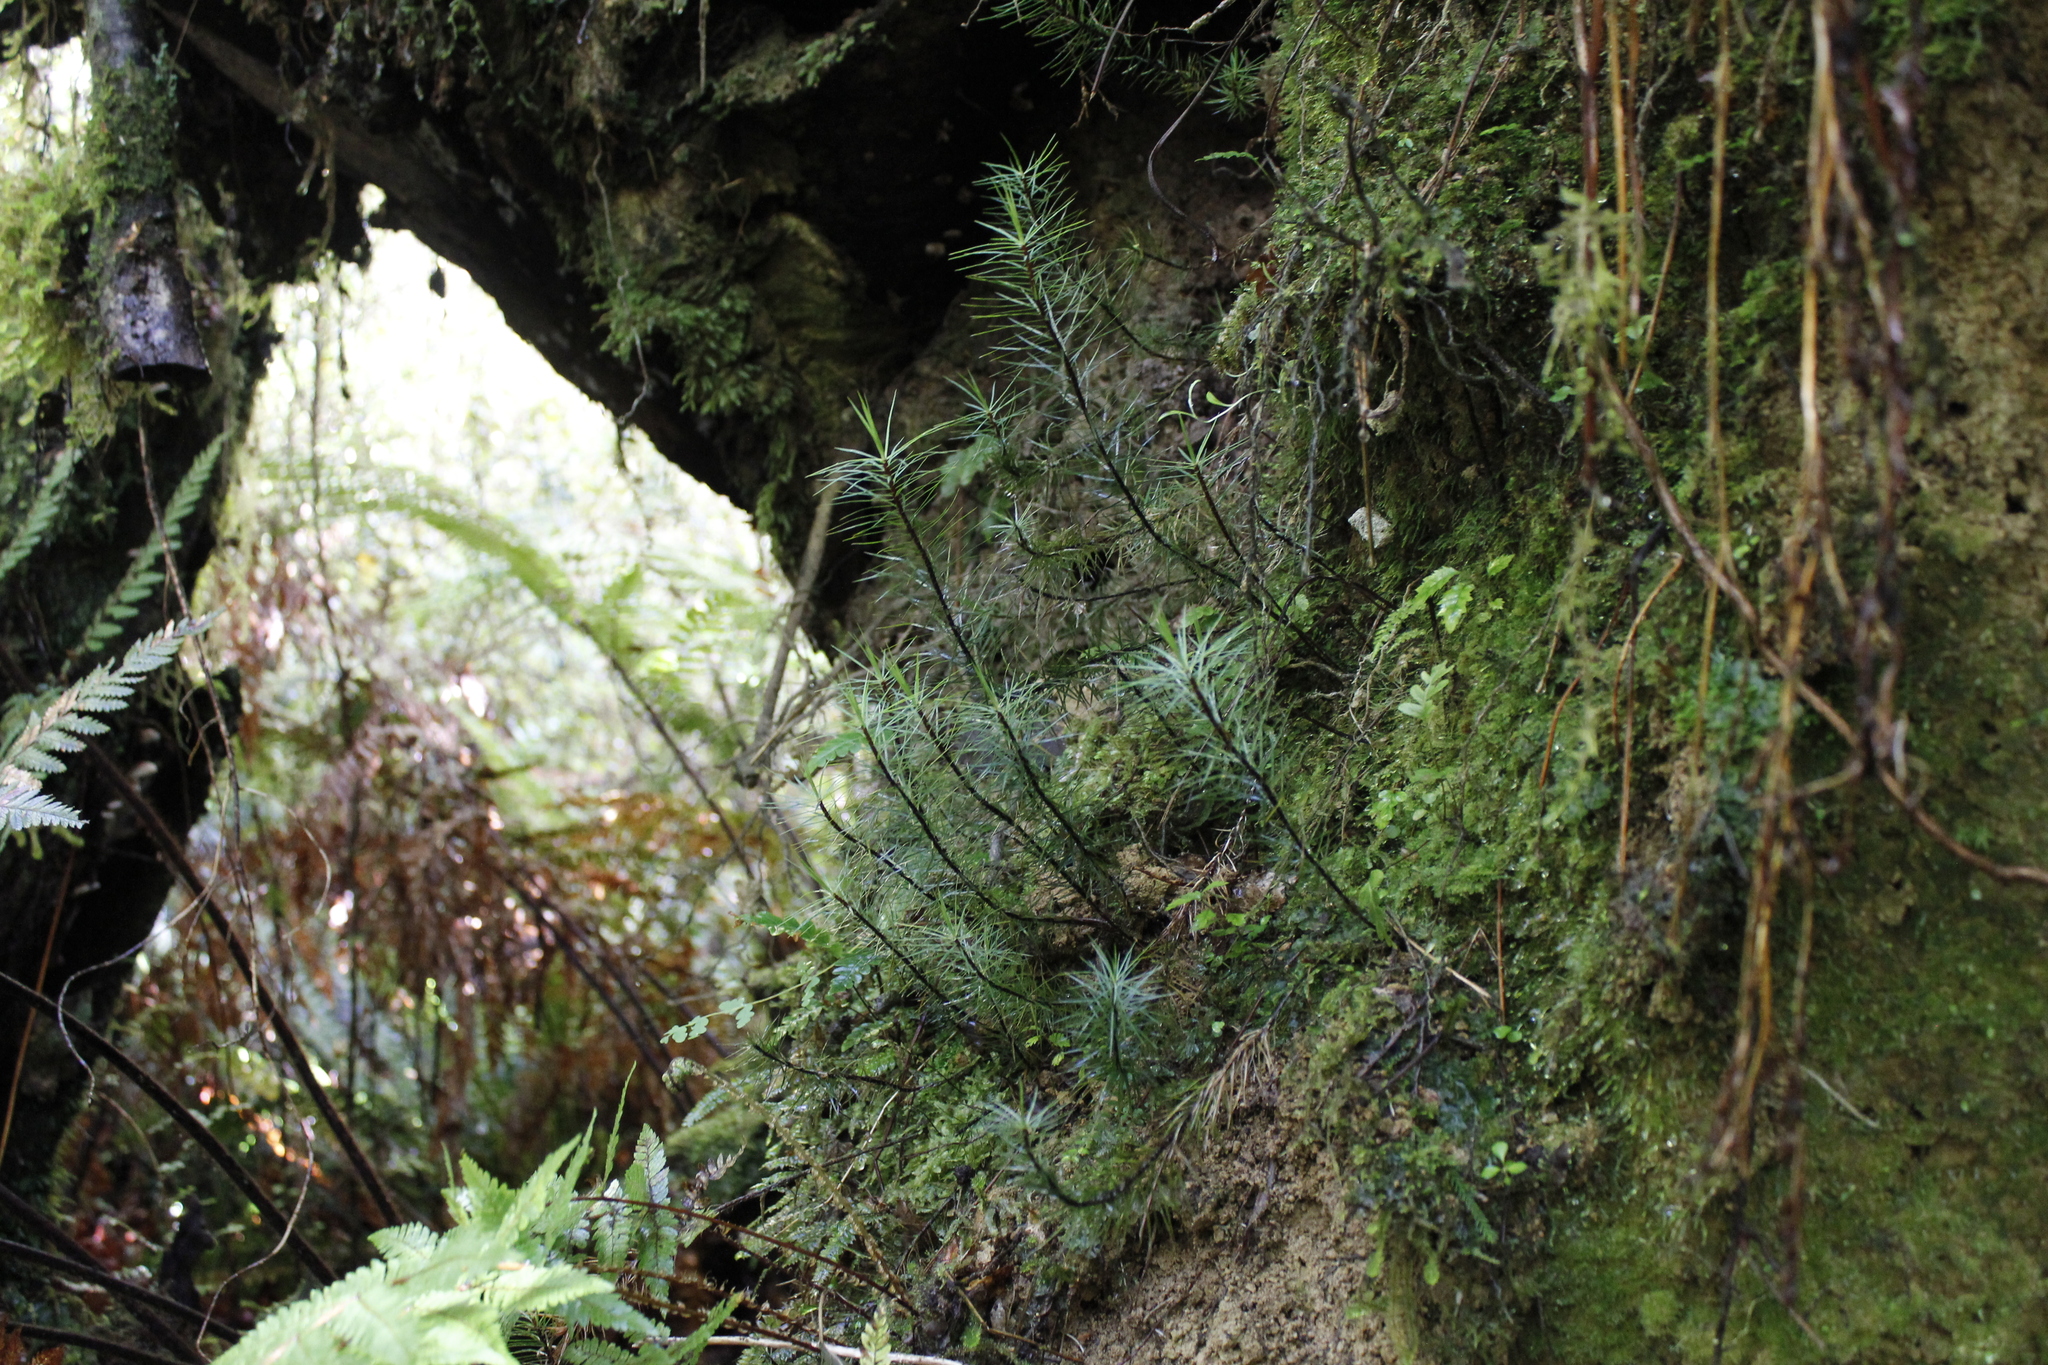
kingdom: Plantae
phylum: Bryophyta
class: Polytrichopsida
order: Polytrichales
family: Polytrichaceae
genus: Dawsonia
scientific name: Dawsonia superba
